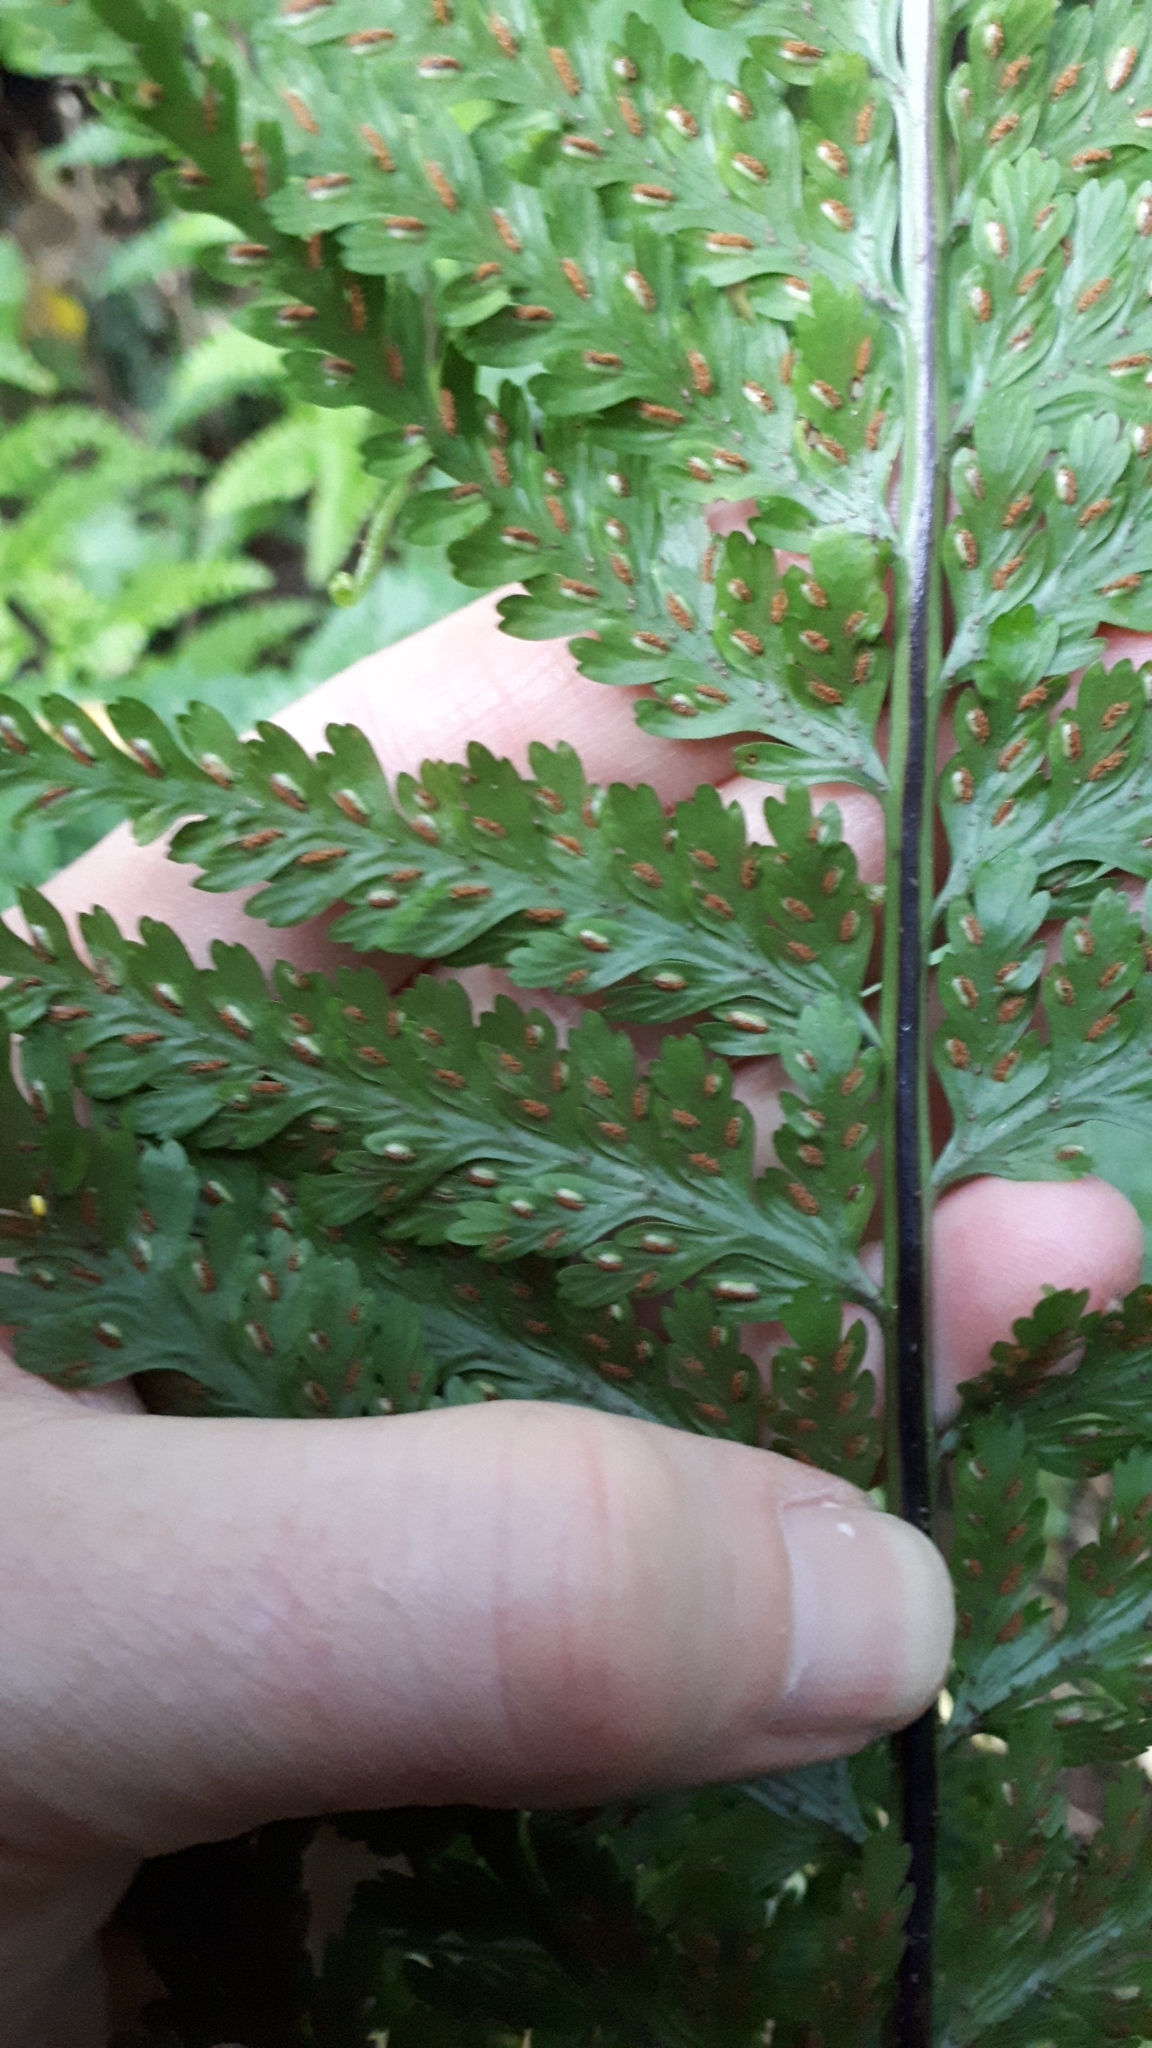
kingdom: Plantae
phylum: Tracheophyta
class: Polypodiopsida
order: Polypodiales
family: Aspleniaceae
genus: Asplenium
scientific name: Asplenium bulbiferum
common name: Mother fern
